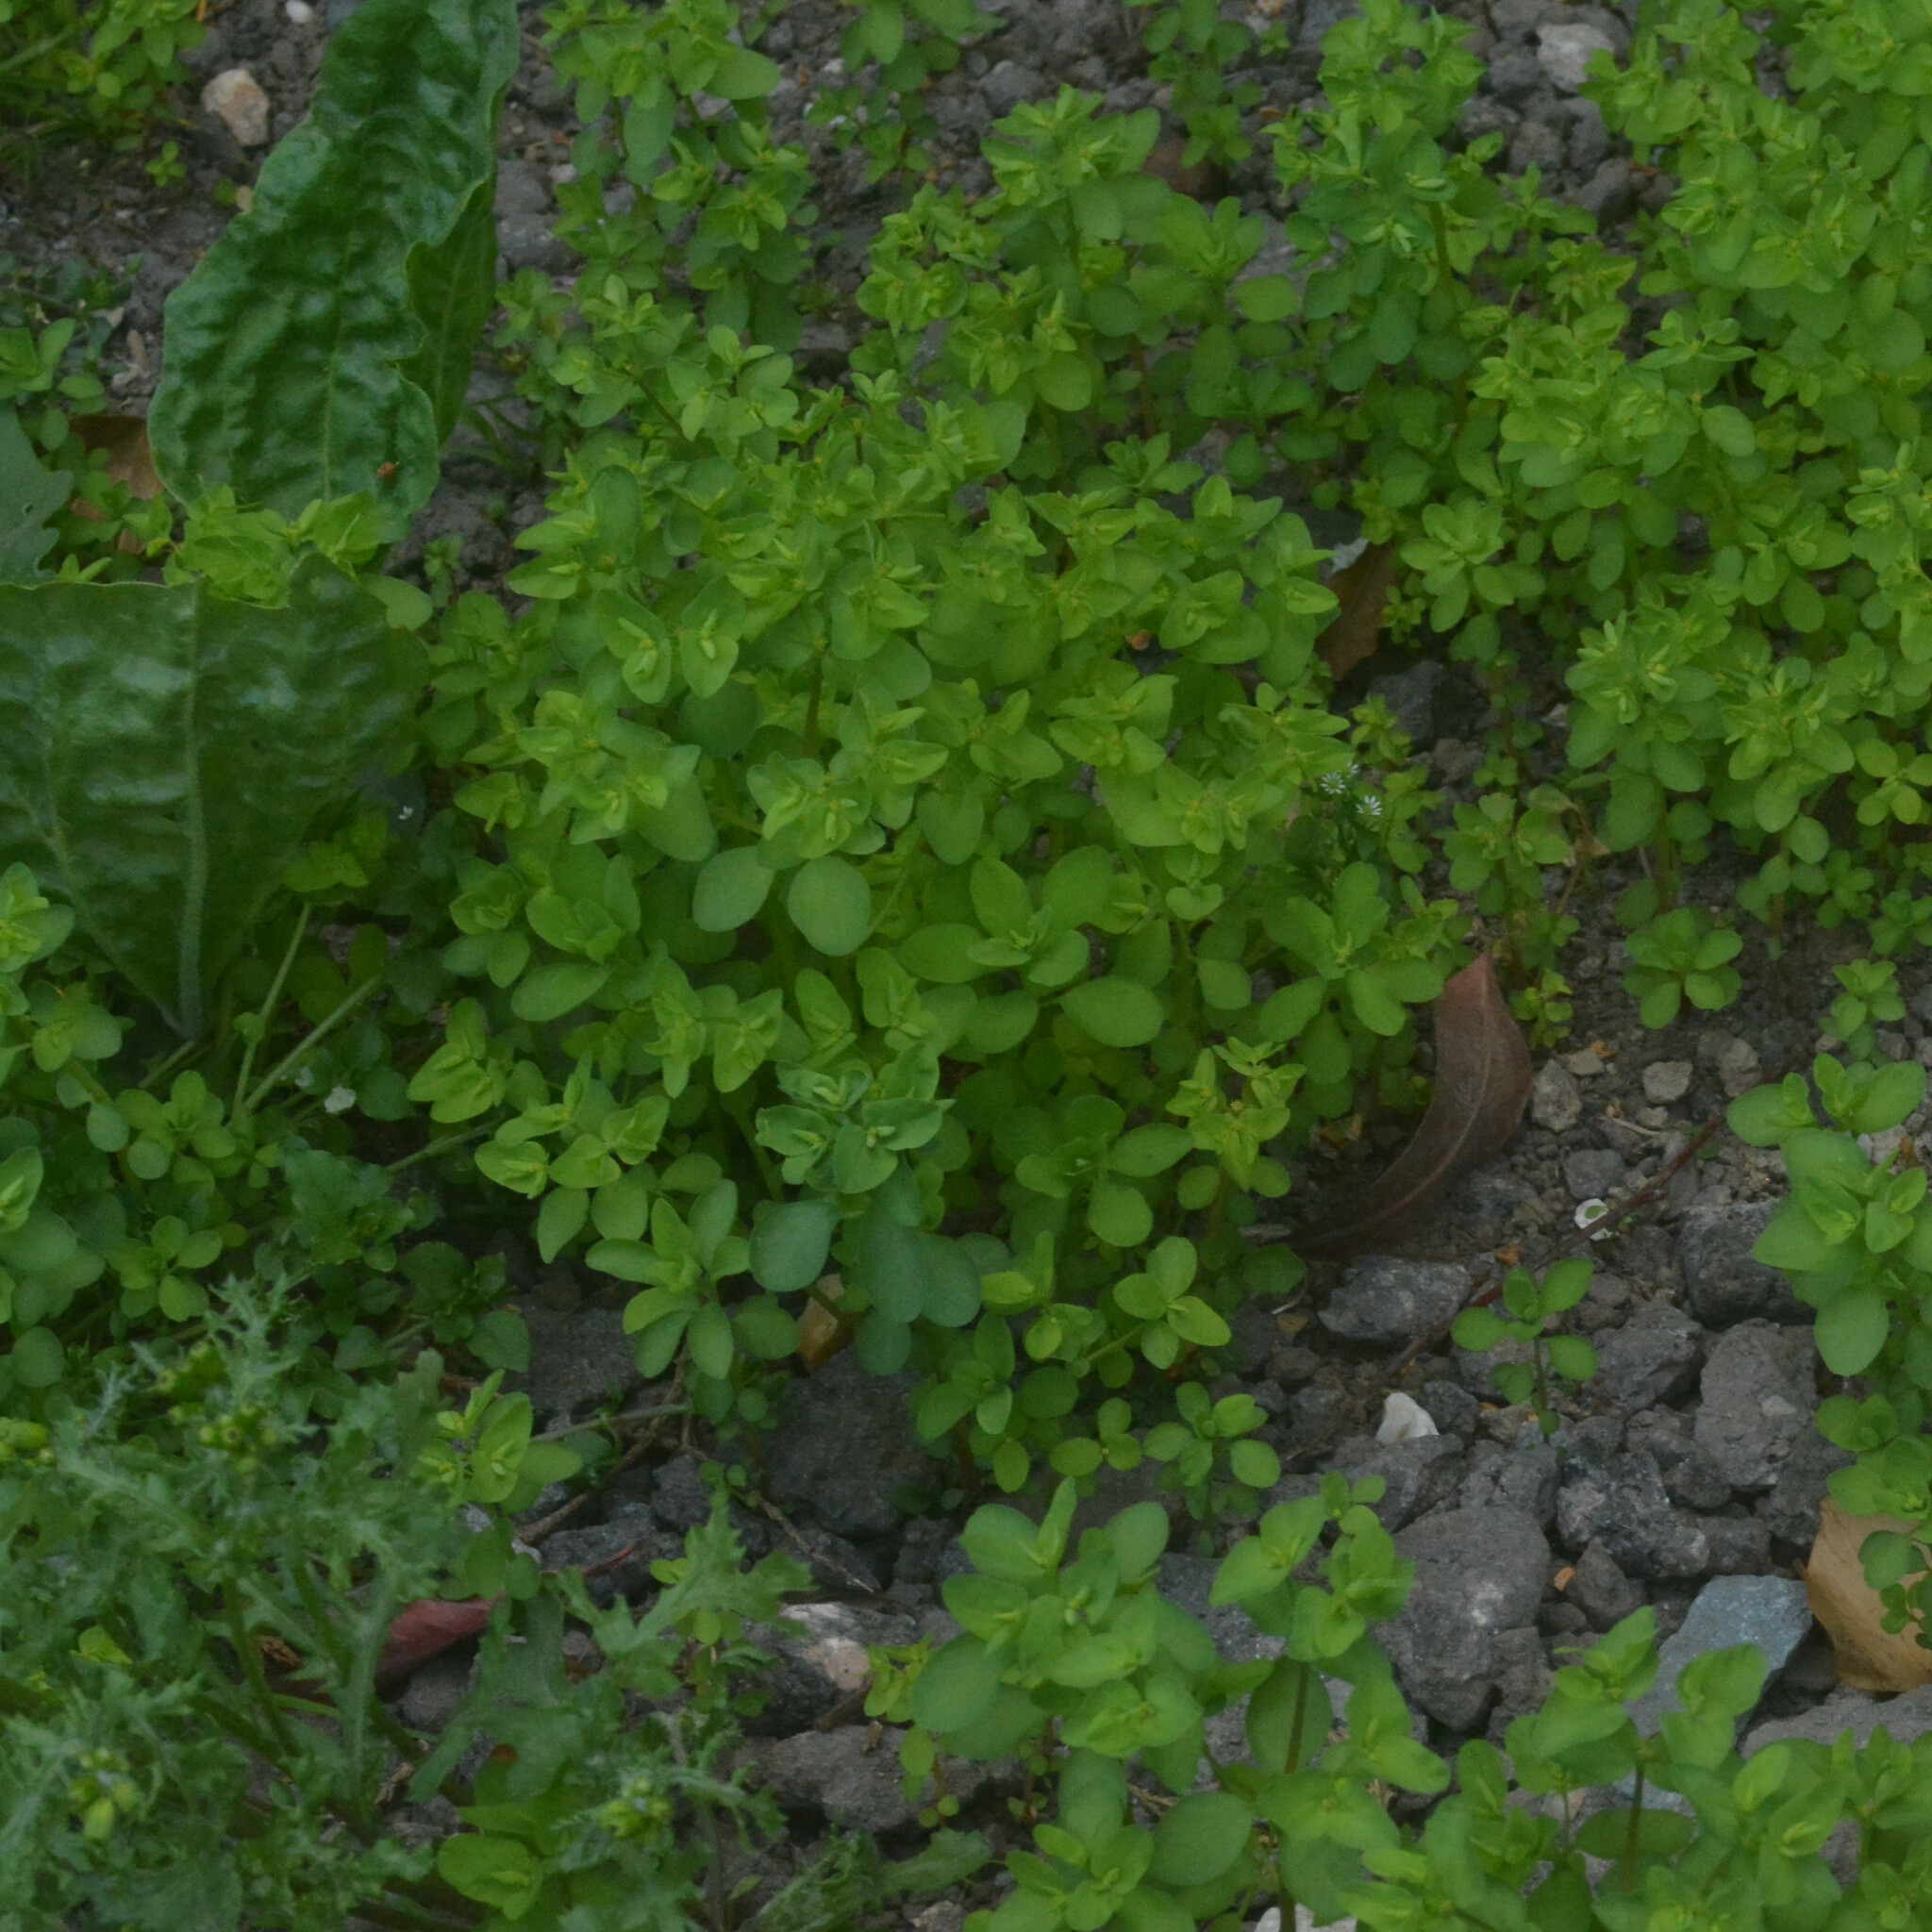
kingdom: Plantae
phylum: Tracheophyta
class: Magnoliopsida
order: Malpighiales
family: Euphorbiaceae
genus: Euphorbia
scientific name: Euphorbia peplus
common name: Petty spurge
